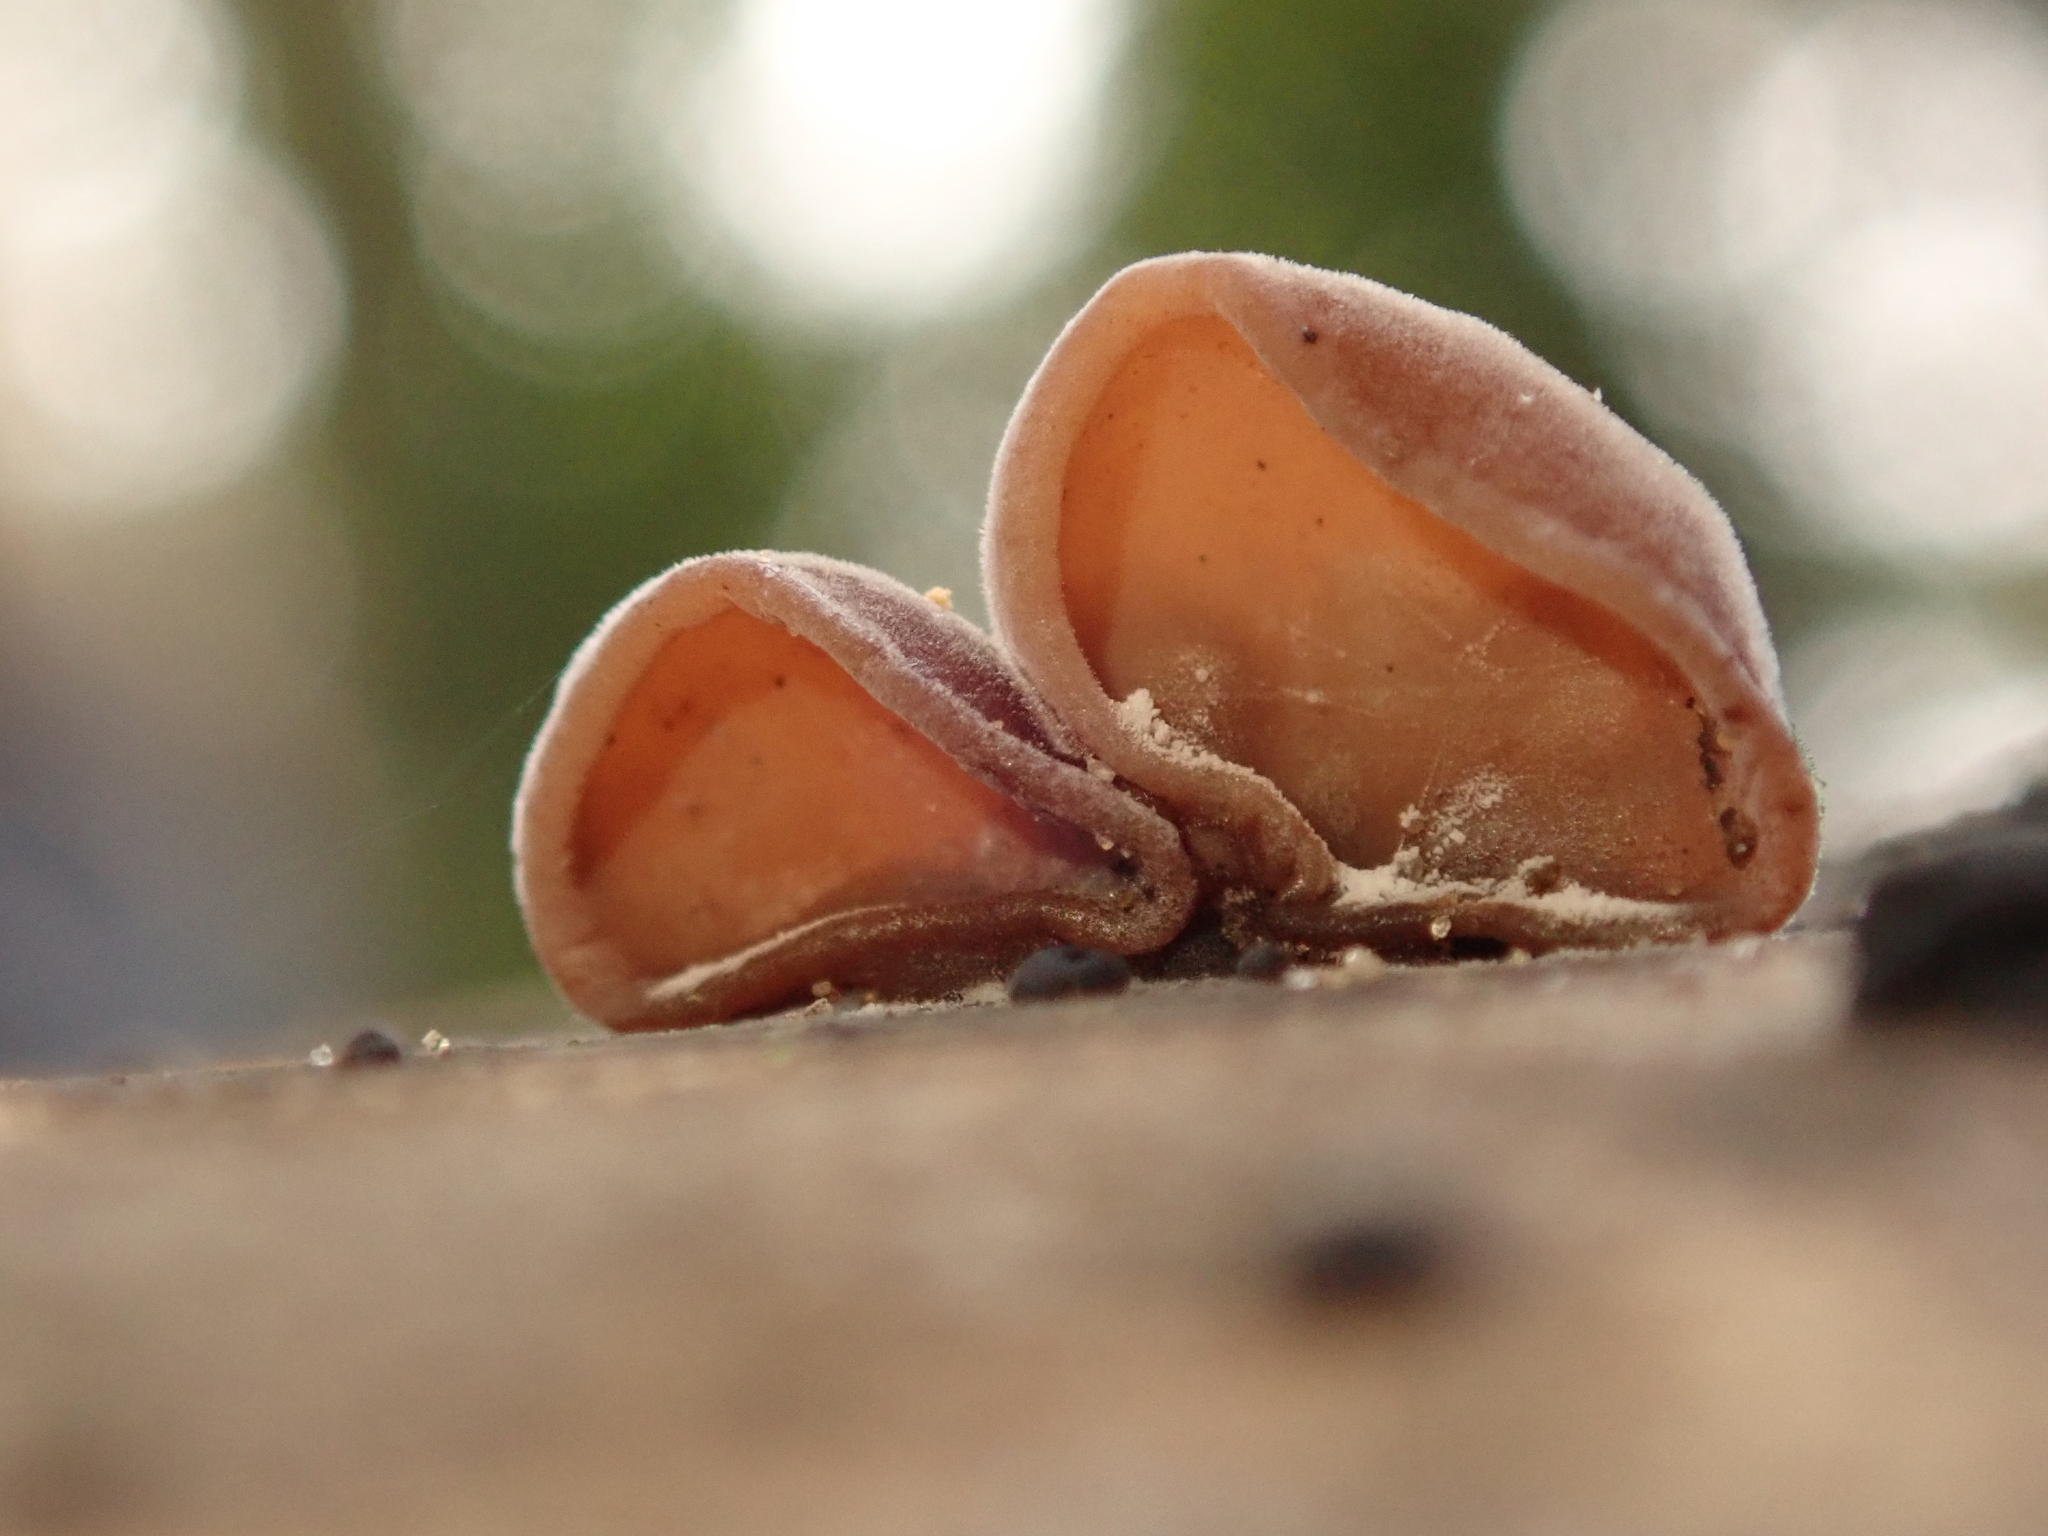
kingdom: Fungi
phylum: Basidiomycota
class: Agaricomycetes
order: Auriculariales
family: Auriculariaceae
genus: Auricularia
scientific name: Auricularia auricula-judae
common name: Jelly ear
